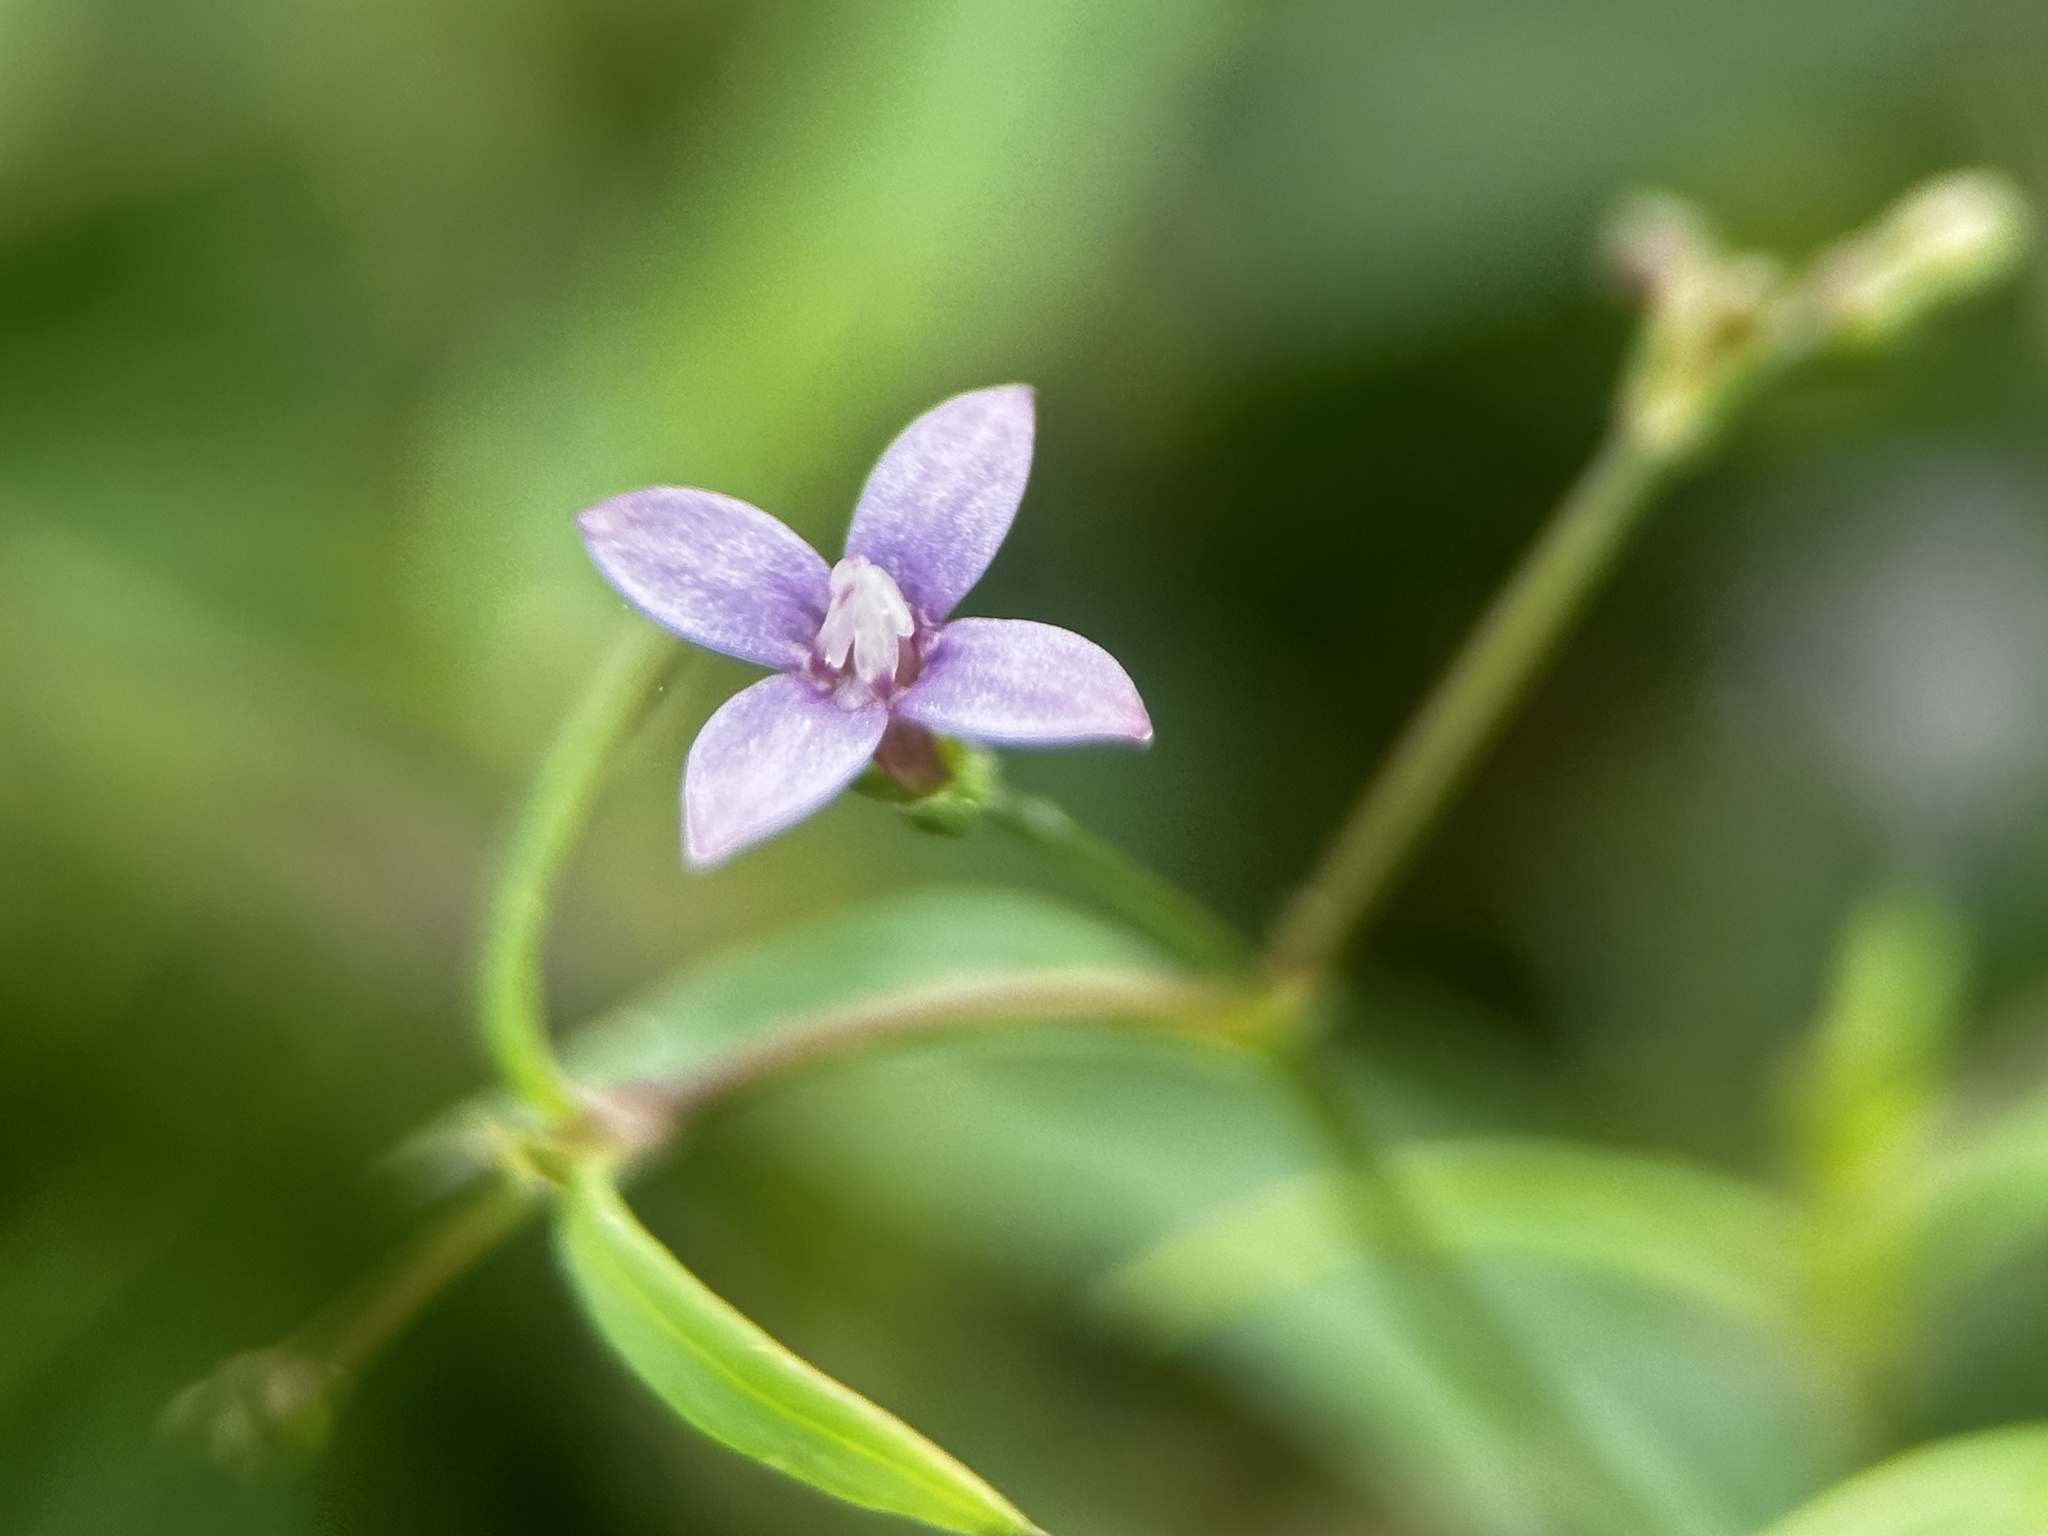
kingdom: Plantae
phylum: Tracheophyta
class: Magnoliopsida
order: Gentianales
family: Rubiaceae
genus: Oldenlandia
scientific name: Oldenlandia affinis
